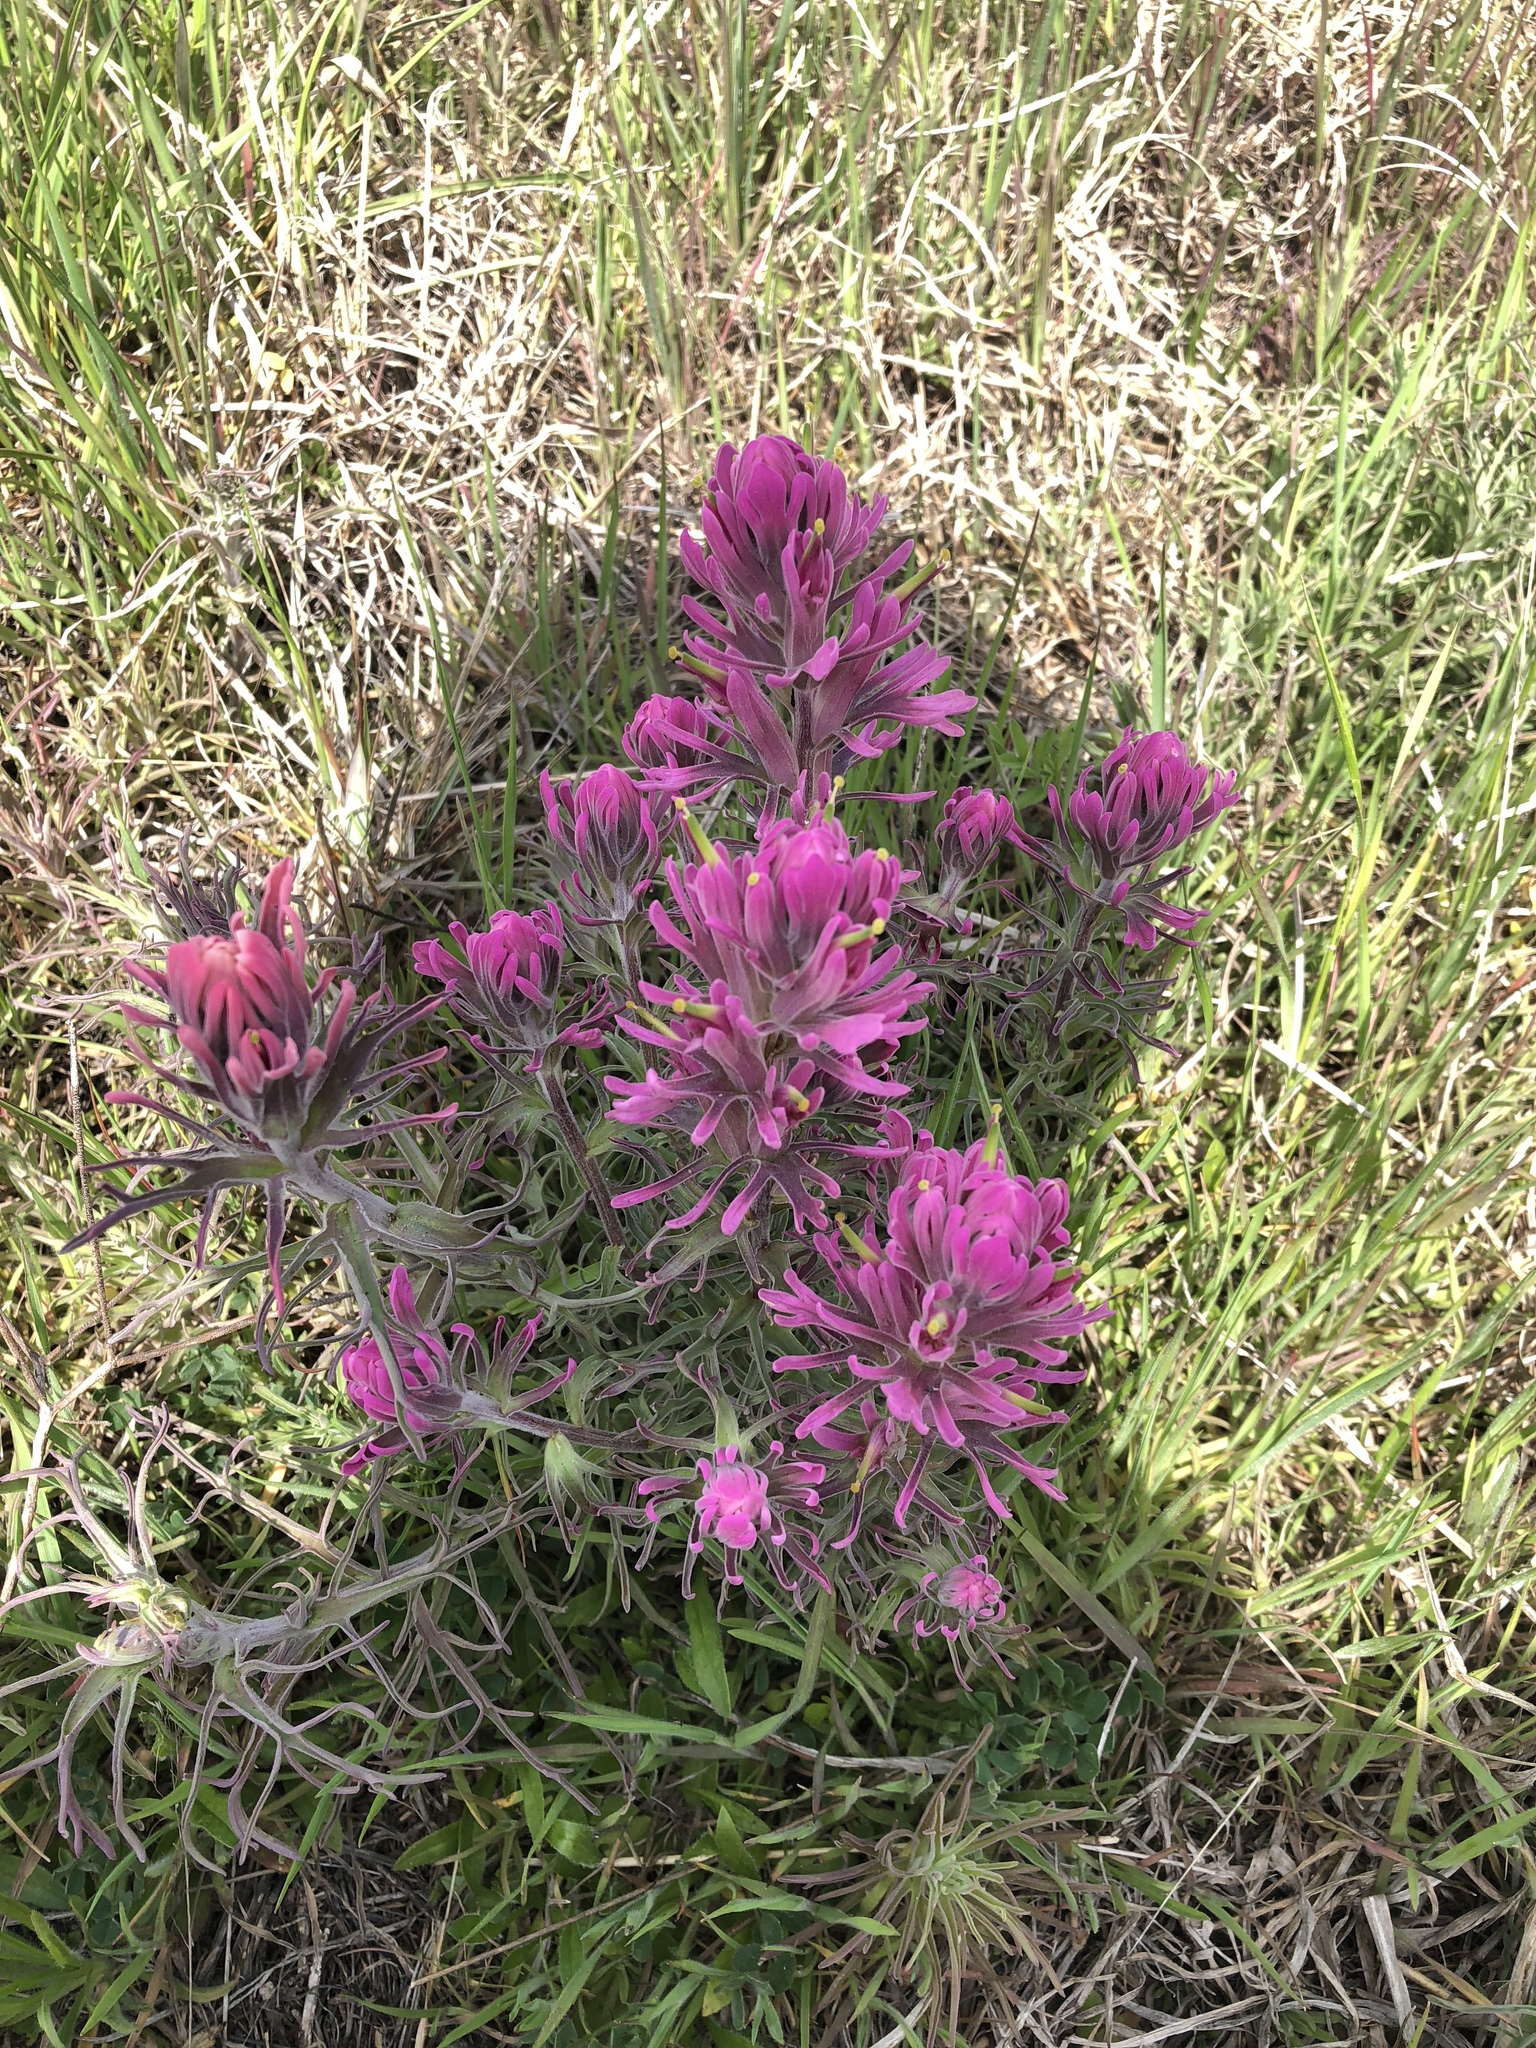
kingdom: Plantae
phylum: Tracheophyta
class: Magnoliopsida
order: Lamiales
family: Orobanchaceae
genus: Castilleja
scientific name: Castilleja purpurea
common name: Plains paintbrush
